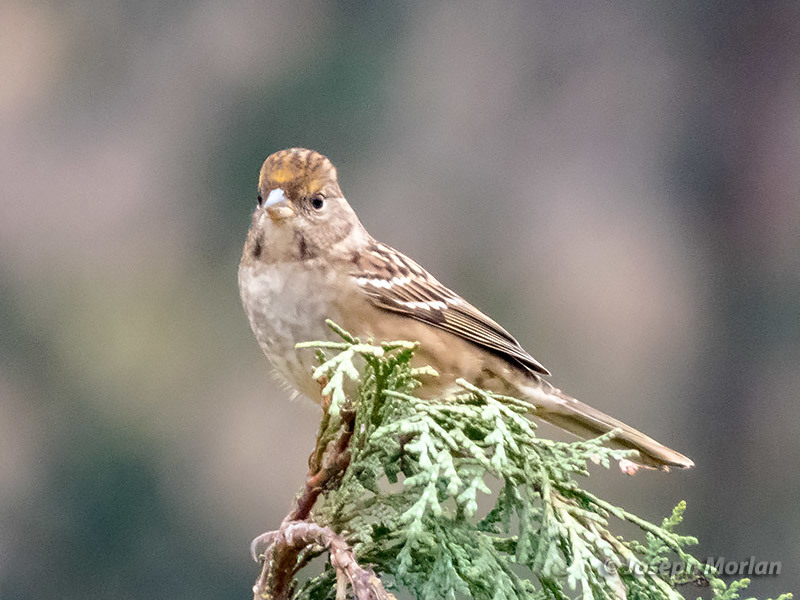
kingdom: Animalia
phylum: Chordata
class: Aves
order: Passeriformes
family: Passerellidae
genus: Zonotrichia
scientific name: Zonotrichia atricapilla
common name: Golden-crowned sparrow
